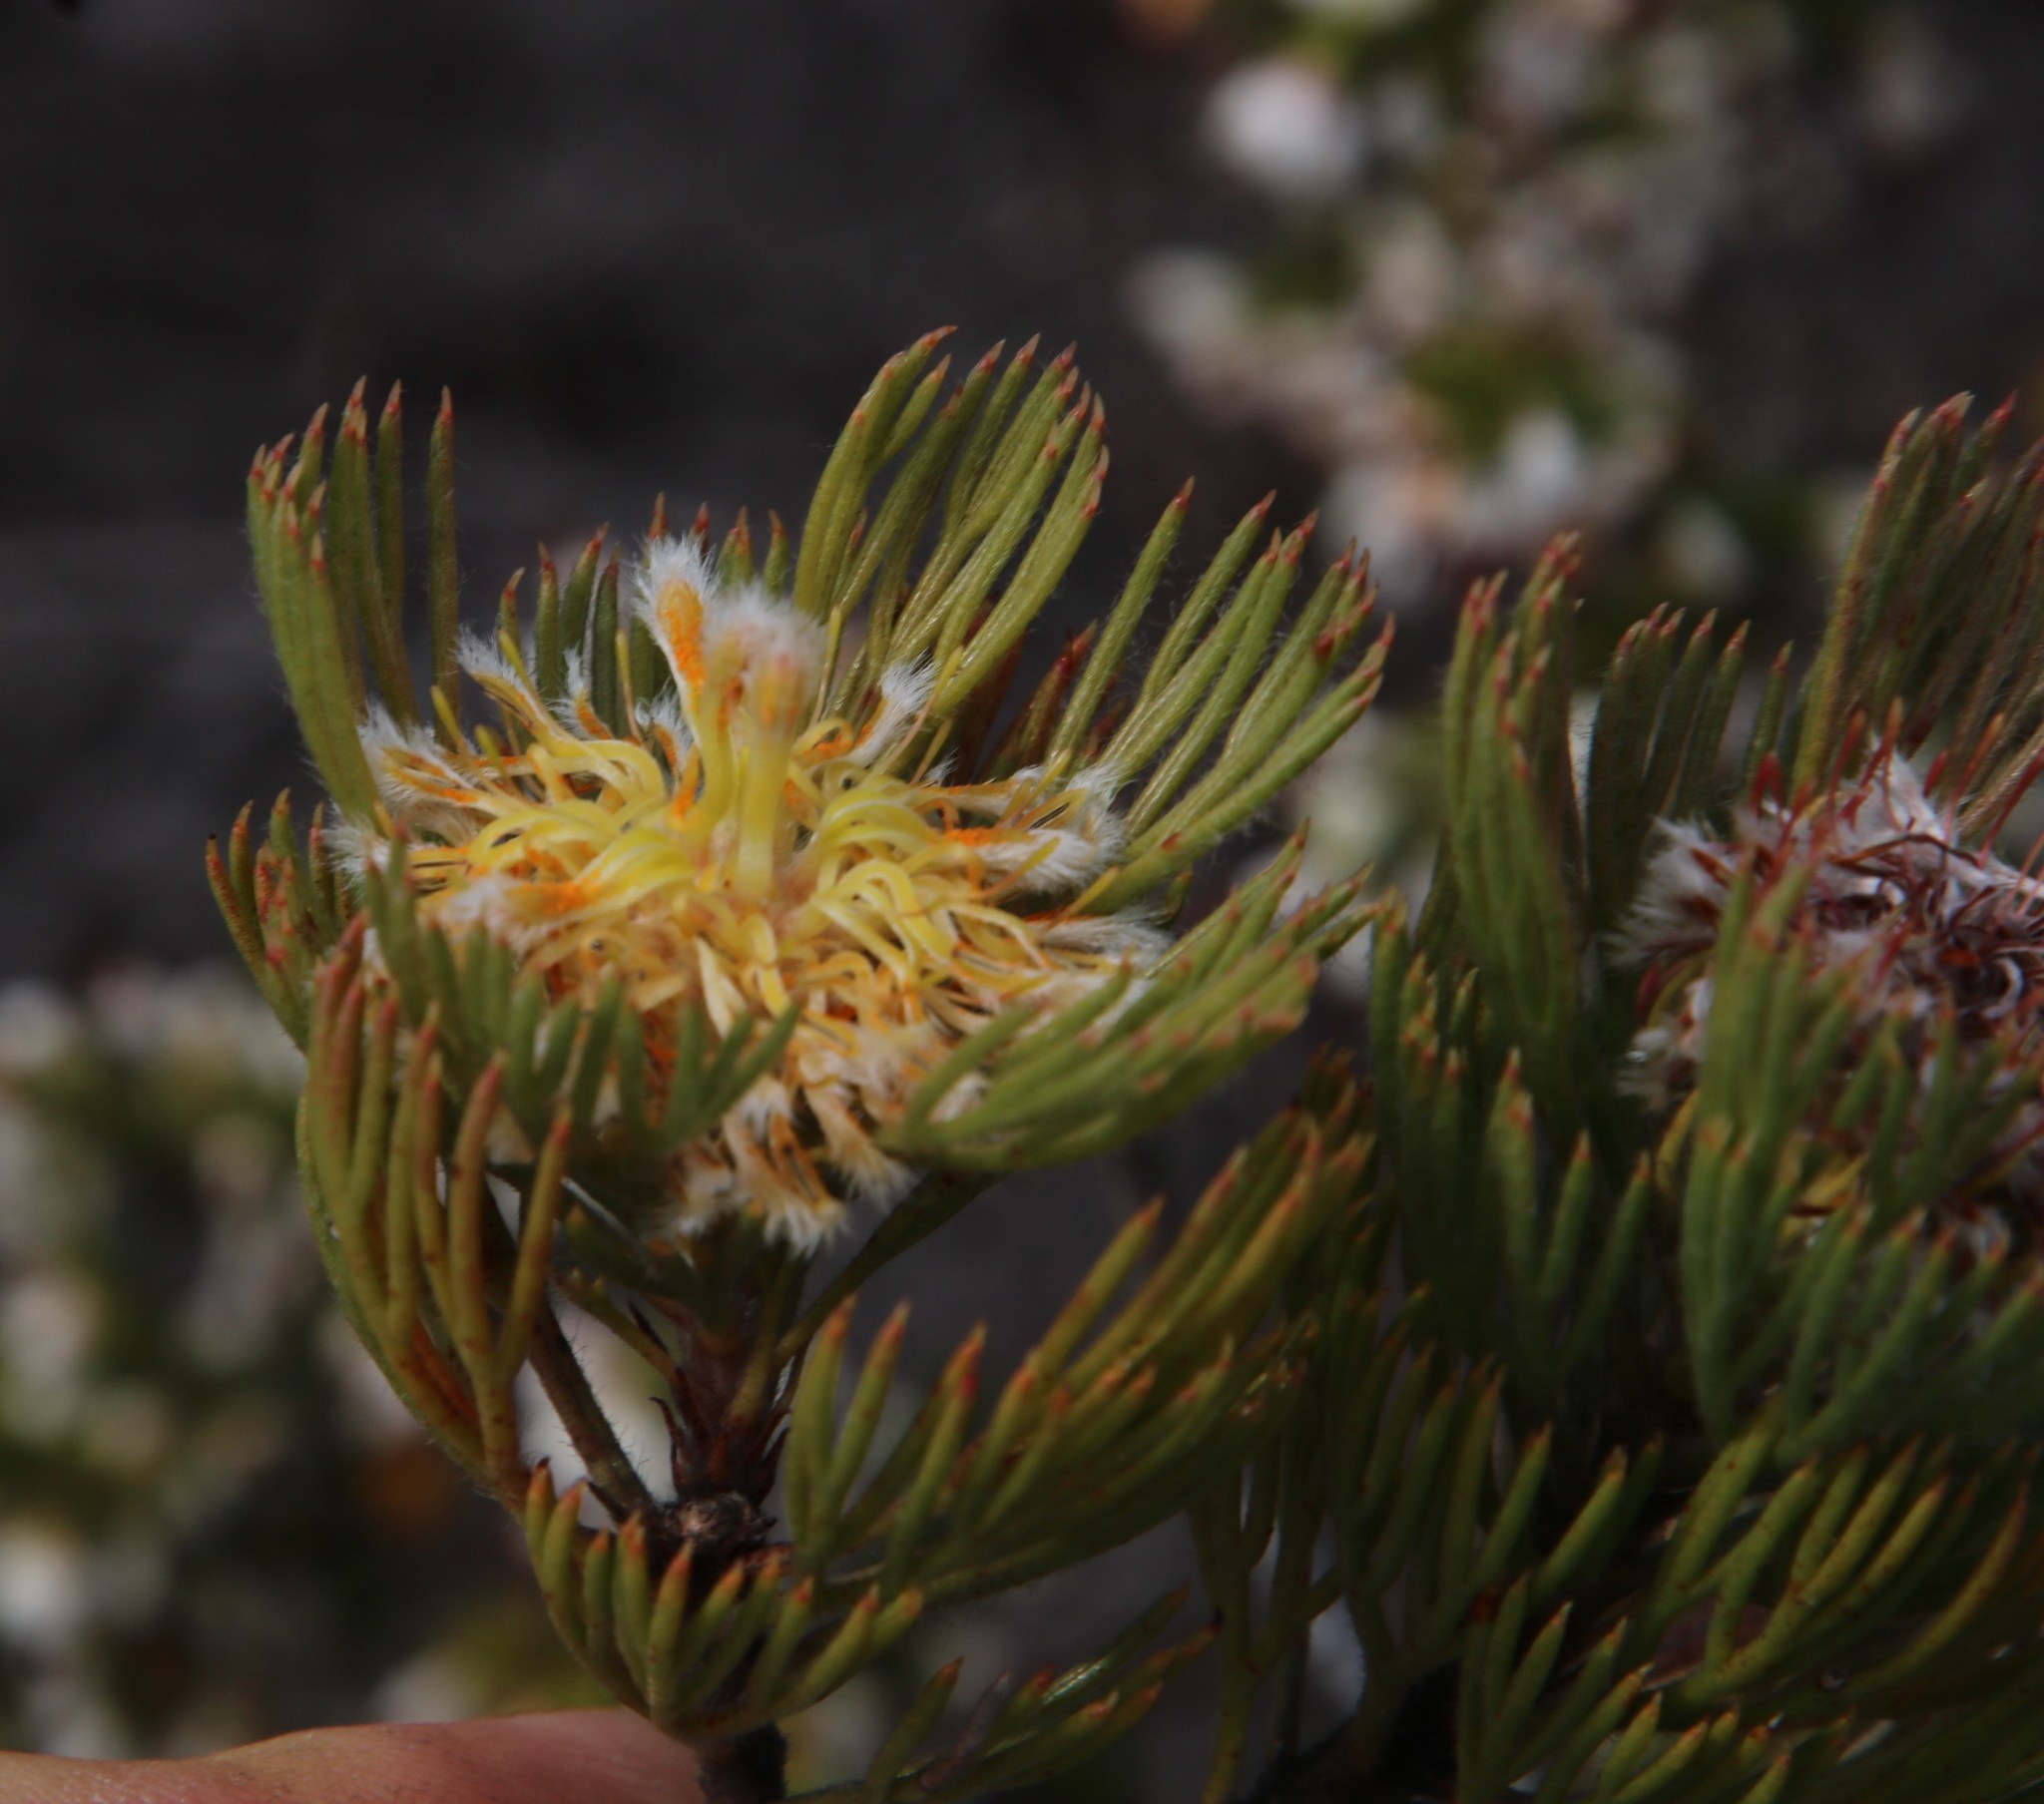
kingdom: Plantae
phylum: Tracheophyta
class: Magnoliopsida
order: Proteales
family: Proteaceae
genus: Serruria
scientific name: Serruria villosa
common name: Golden spiderhead
